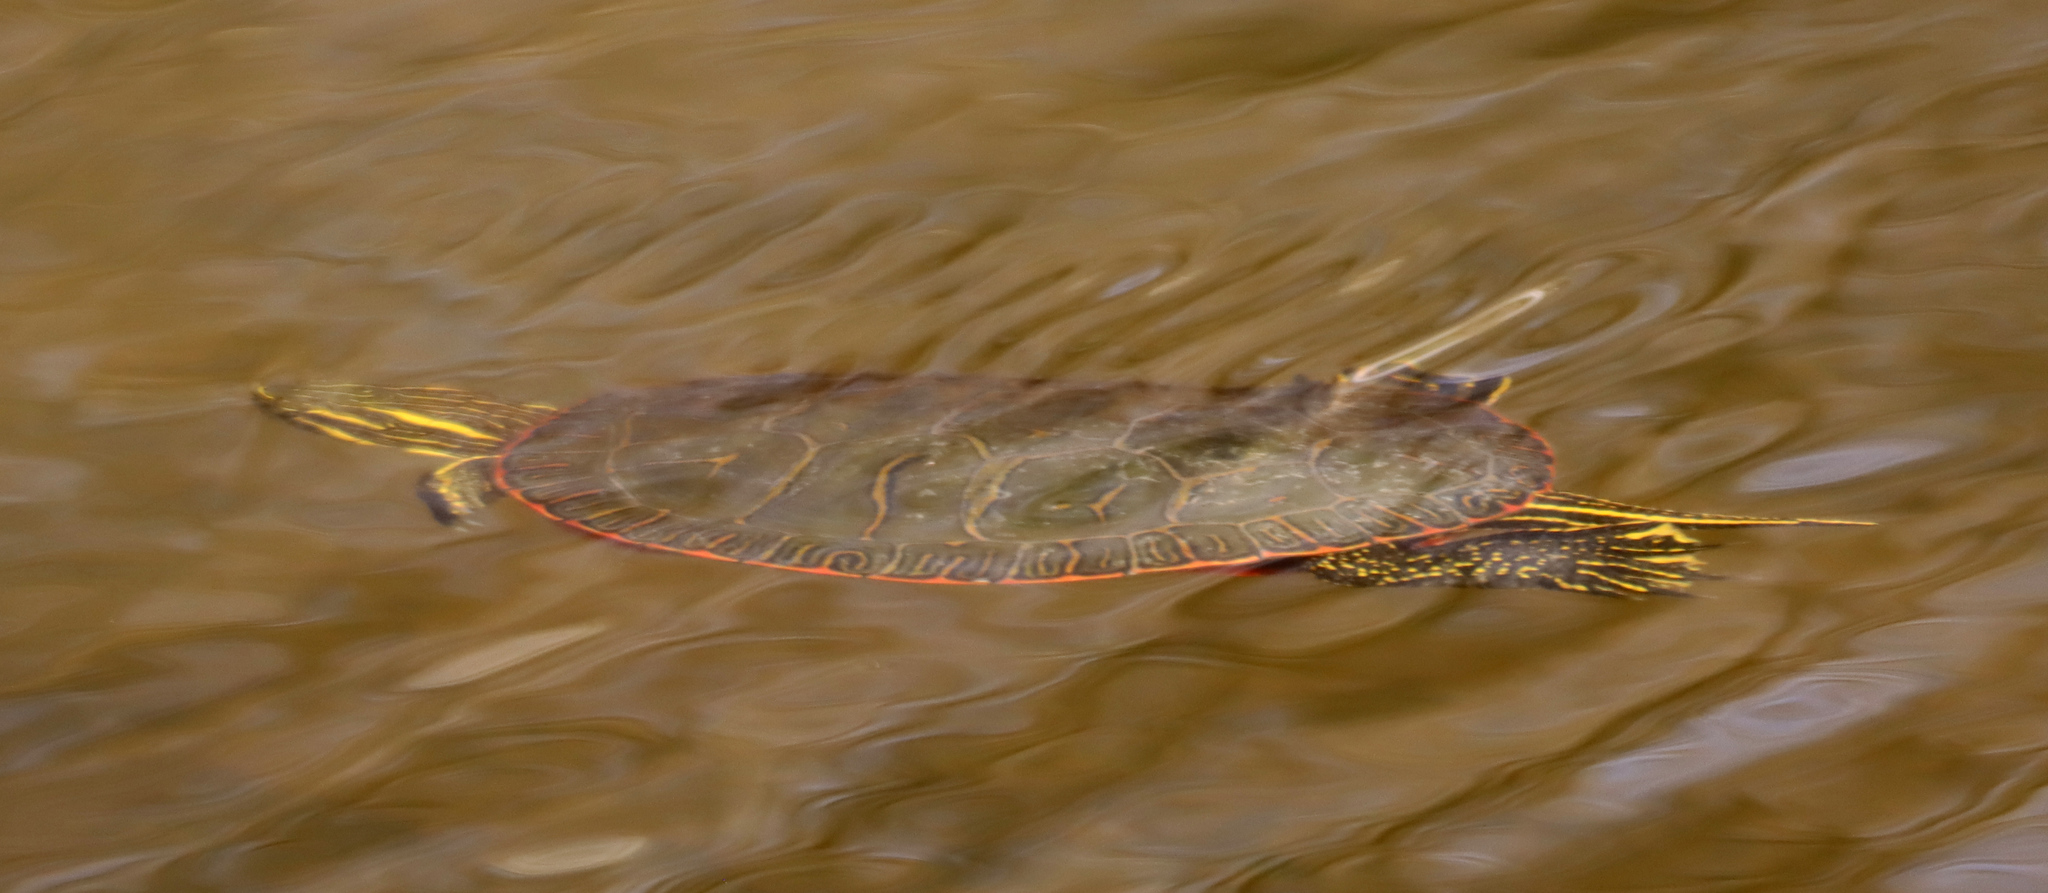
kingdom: Animalia
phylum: Chordata
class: Testudines
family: Emydidae
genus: Chrysemys
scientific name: Chrysemys picta
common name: Painted turtle
